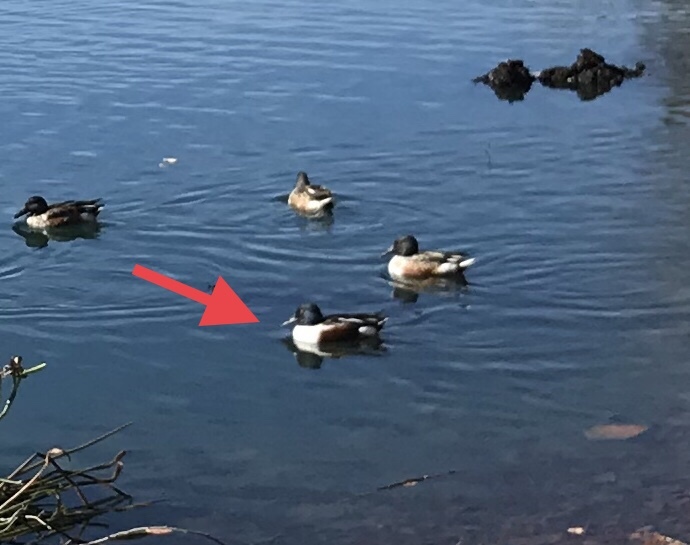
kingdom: Animalia
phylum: Chordata
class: Aves
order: Anseriformes
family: Anatidae
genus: Spatula
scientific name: Spatula clypeata
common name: Northern shoveler
